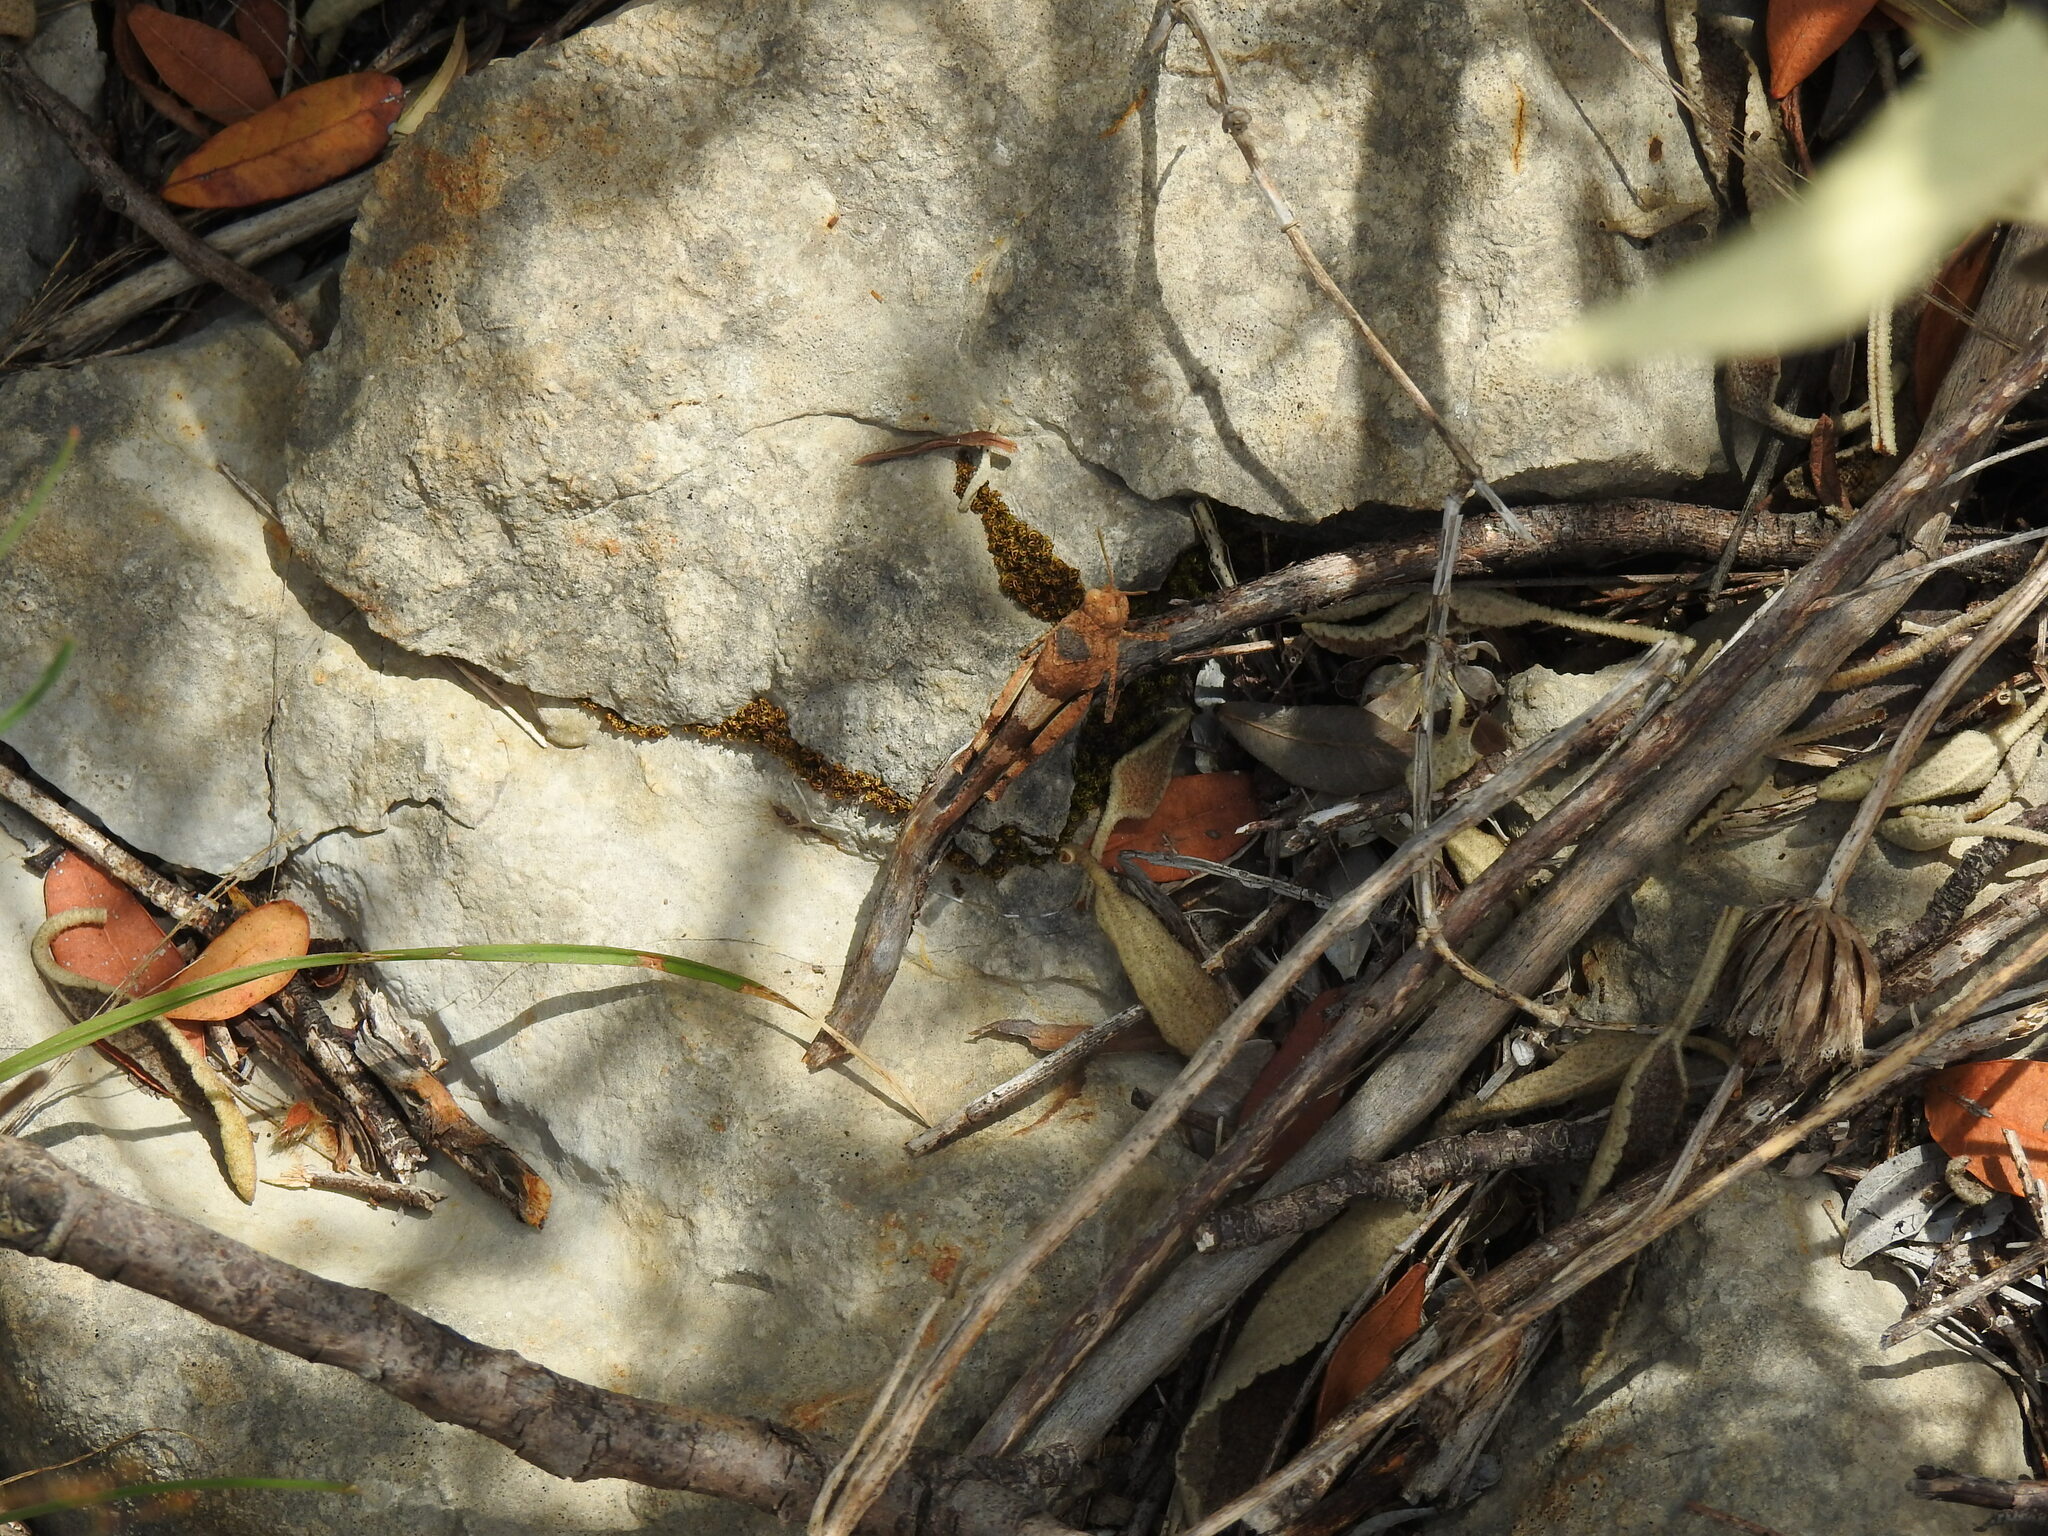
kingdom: Animalia
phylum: Arthropoda
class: Insecta
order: Orthoptera
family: Acrididae
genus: Oedipoda
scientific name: Oedipoda caerulescens
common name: Blue-winged grasshopper
